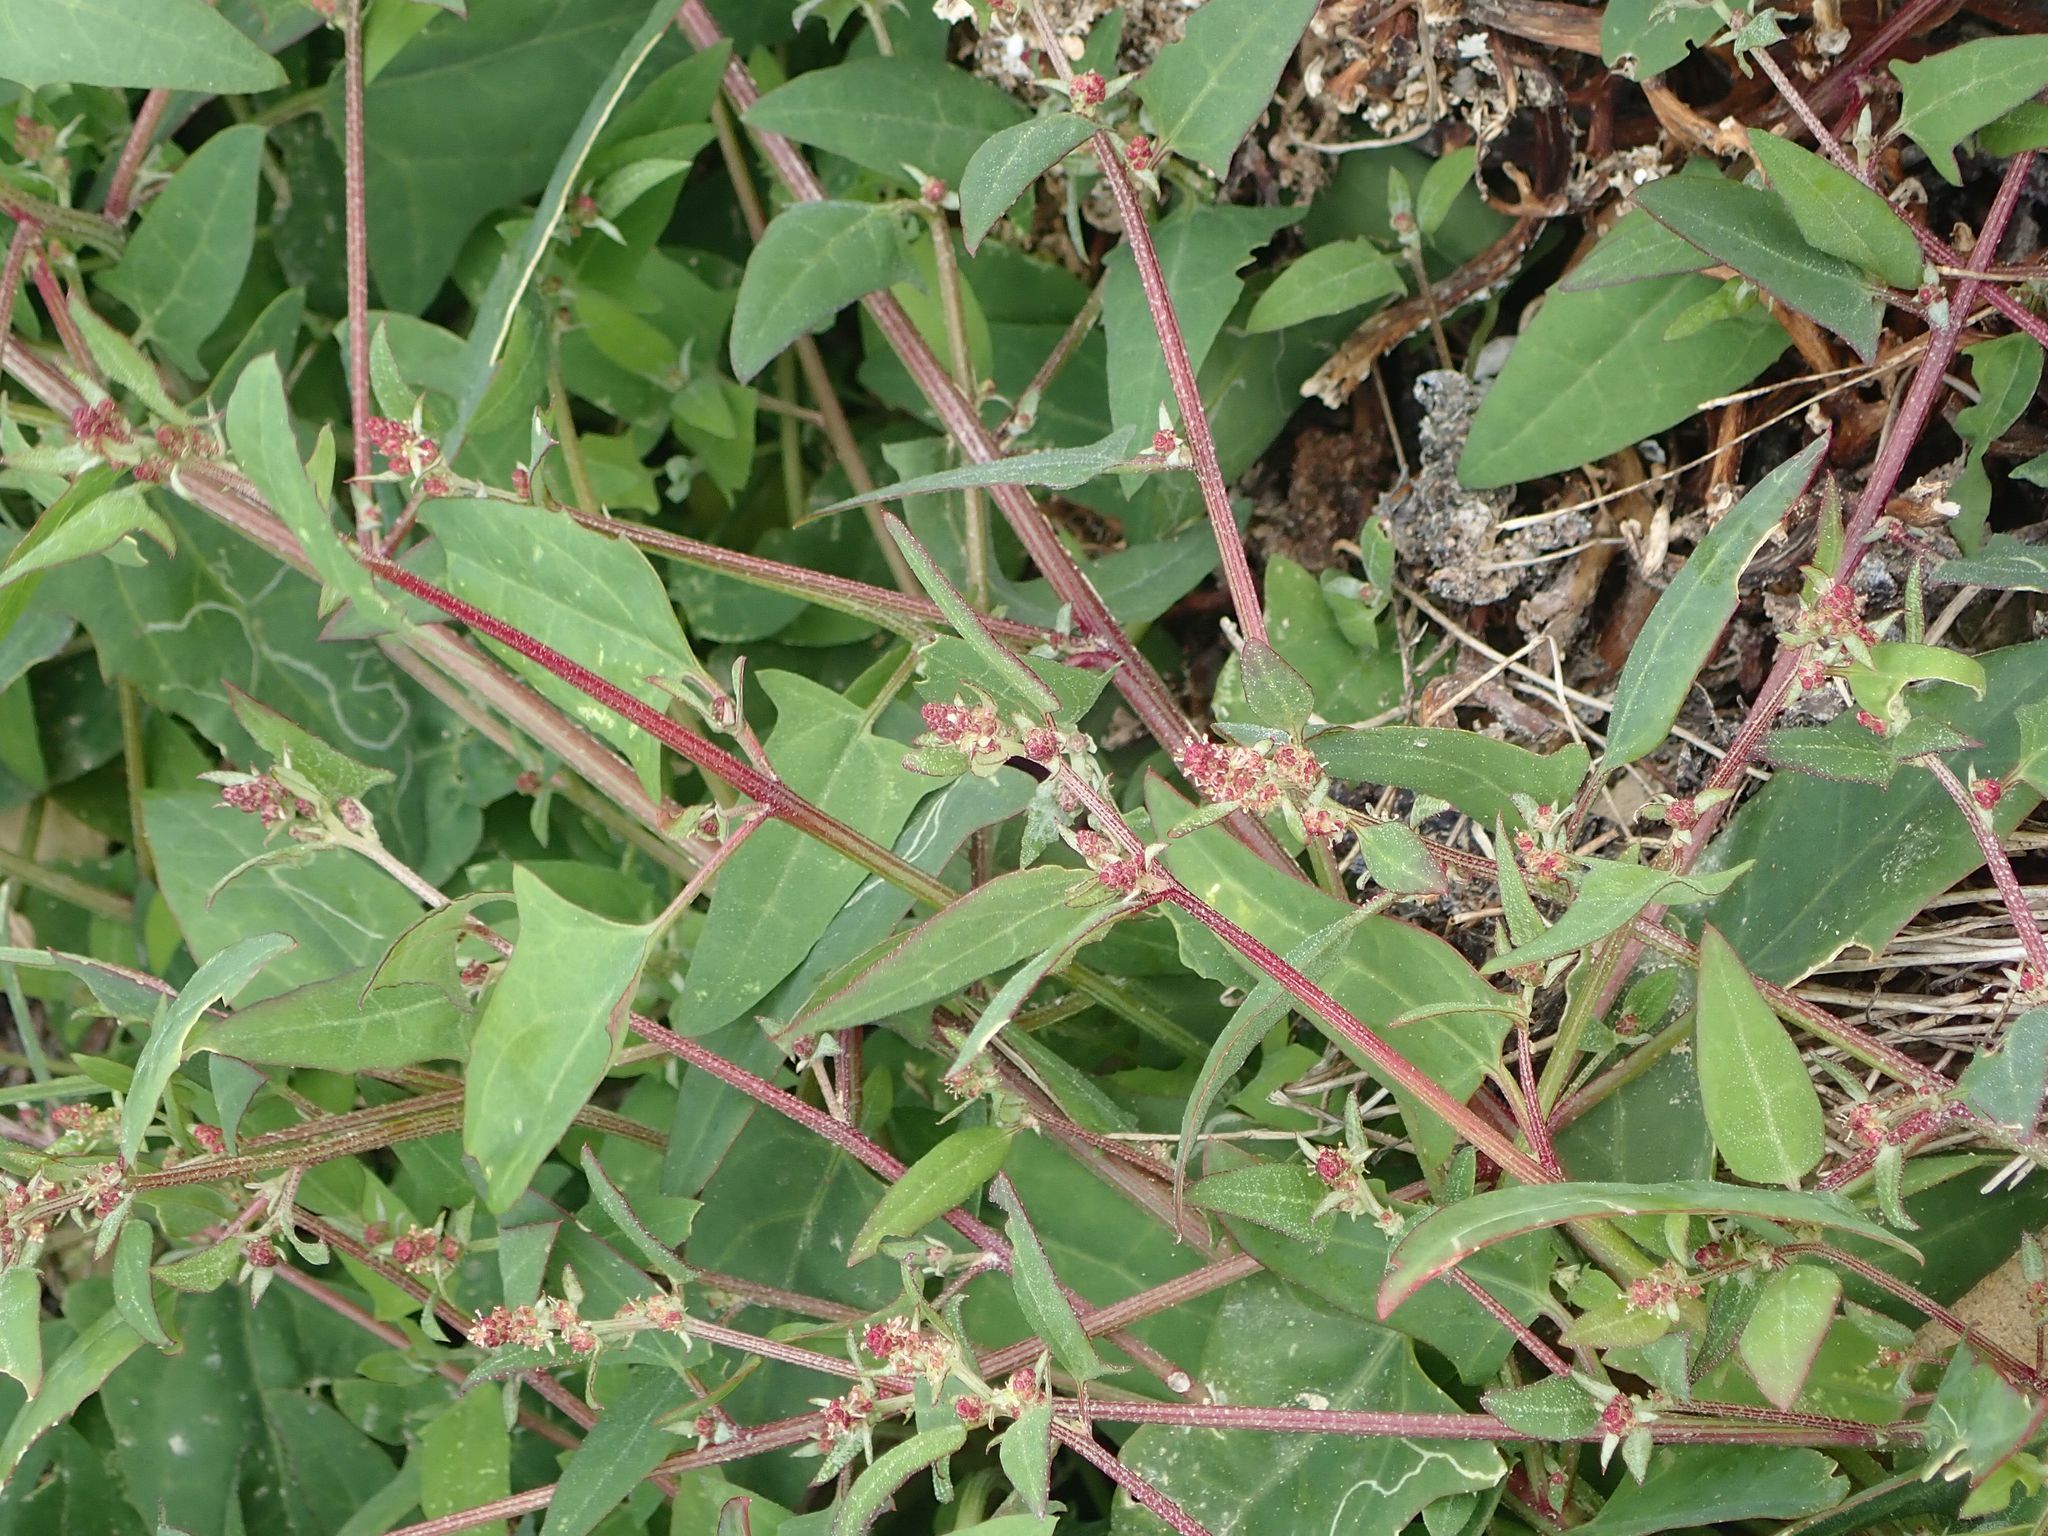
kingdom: Plantae
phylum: Tracheophyta
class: Magnoliopsida
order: Caryophyllales
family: Amaranthaceae
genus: Atriplex
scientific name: Atriplex prostrata
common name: Spear-leaved orache
